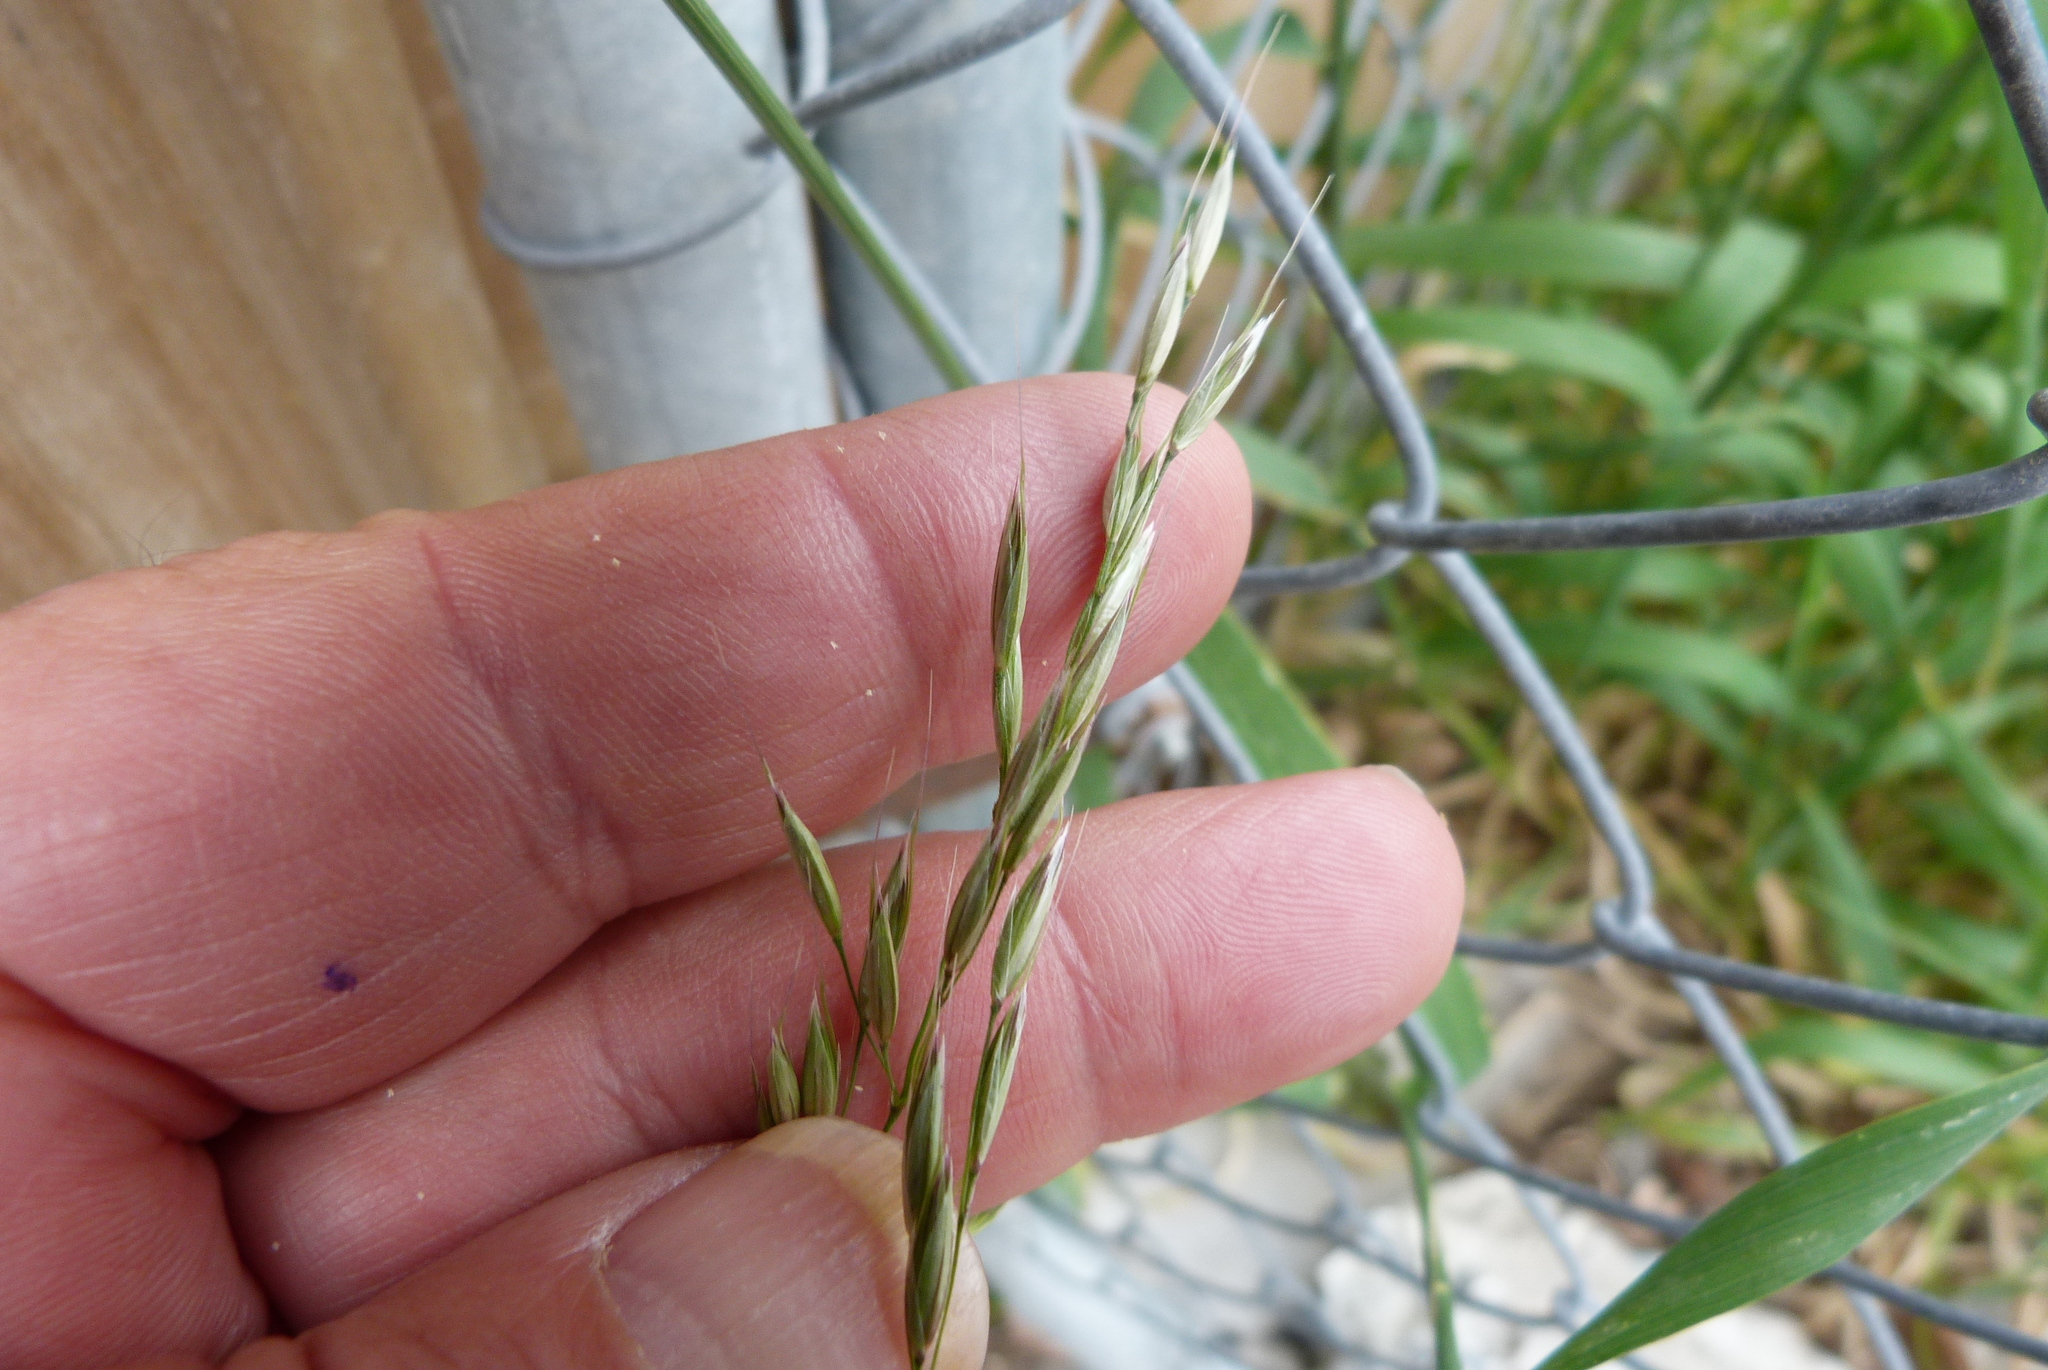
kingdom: Plantae
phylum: Tracheophyta
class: Liliopsida
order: Poales
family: Poaceae
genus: Arrhenatherum
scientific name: Arrhenatherum elatius
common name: Tall oatgrass
